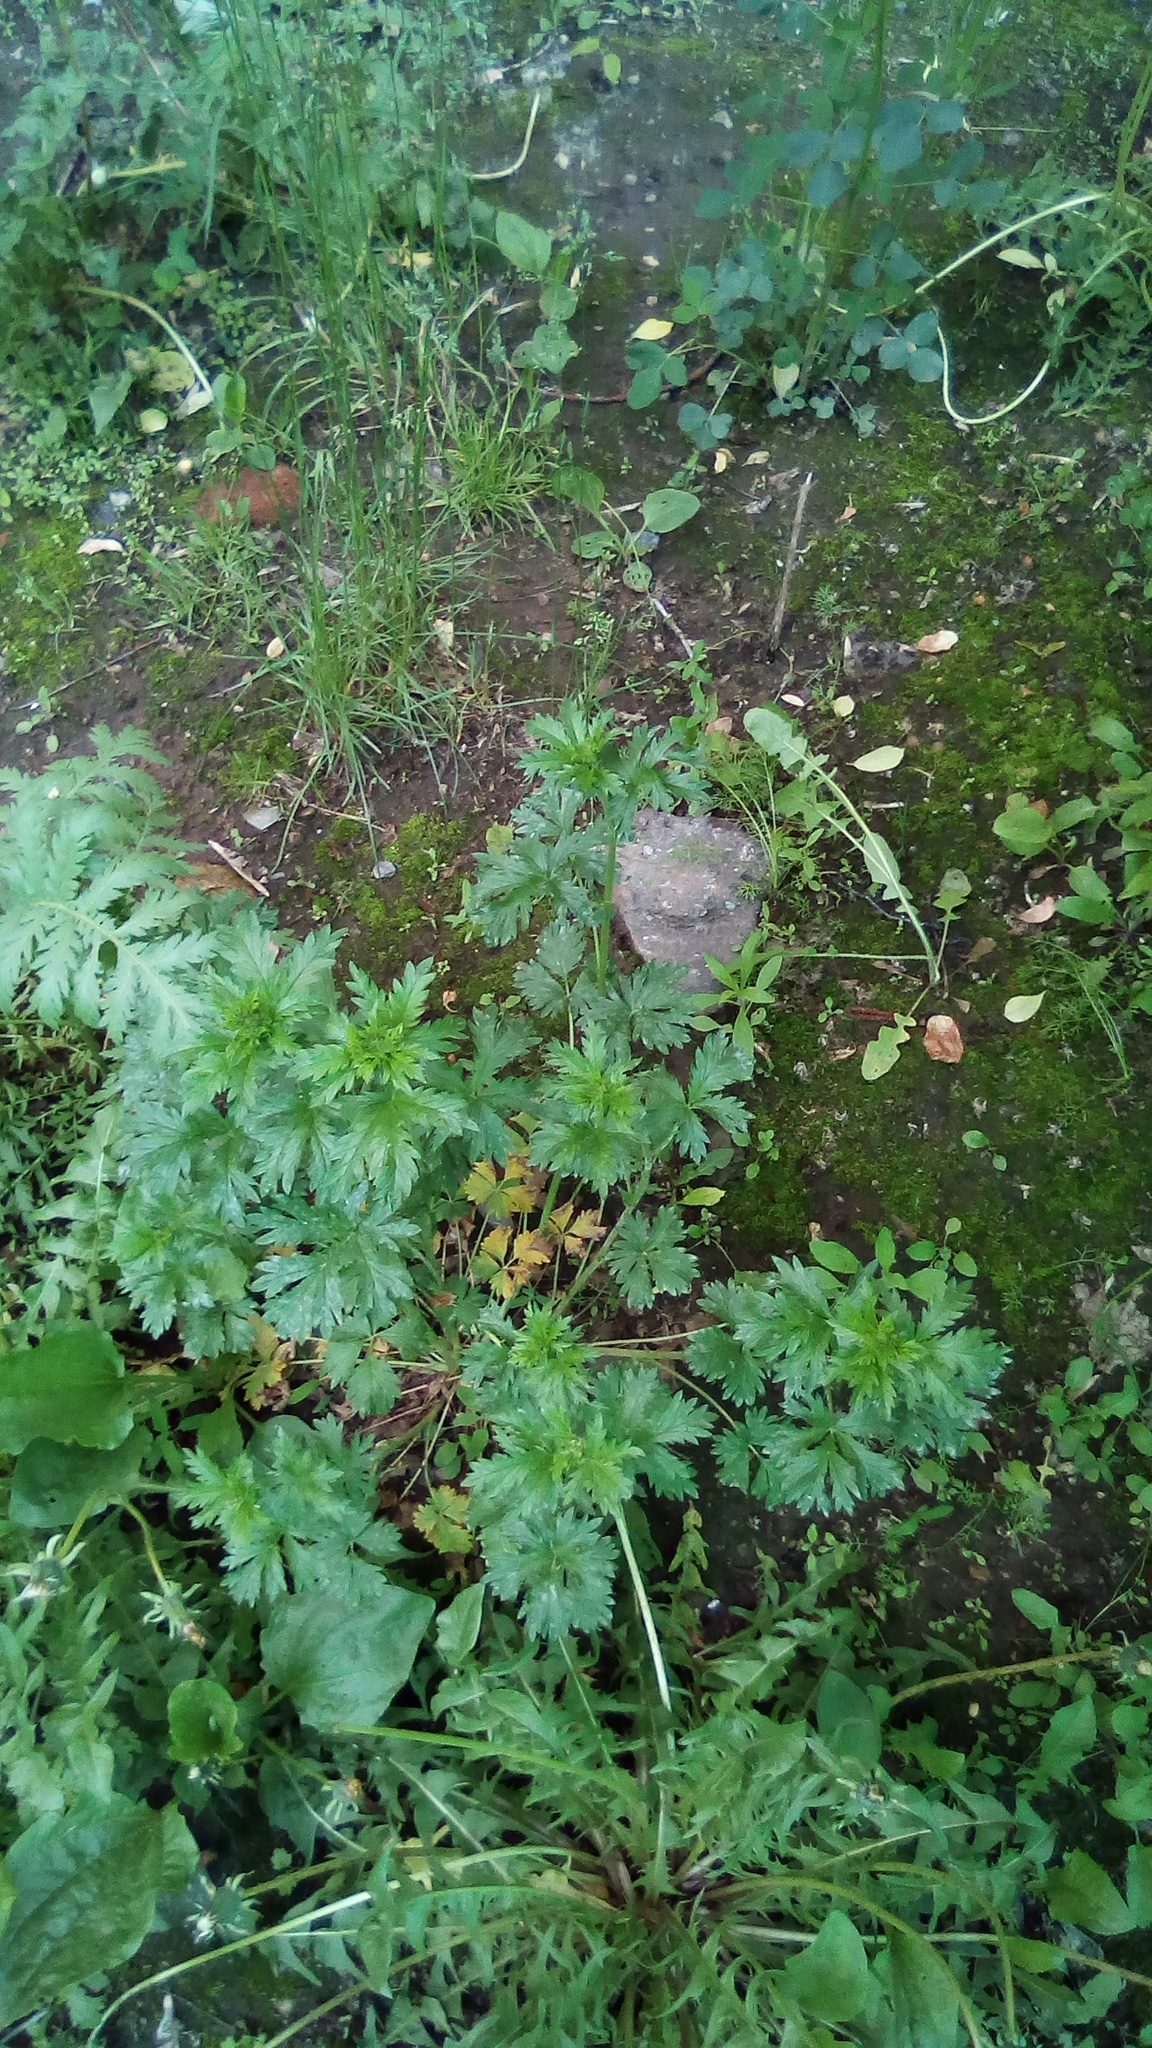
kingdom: Plantae
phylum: Tracheophyta
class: Magnoliopsida
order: Rosales
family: Rosaceae
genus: Potentilla
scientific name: Potentilla intermedia
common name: Downy cinquefoil
